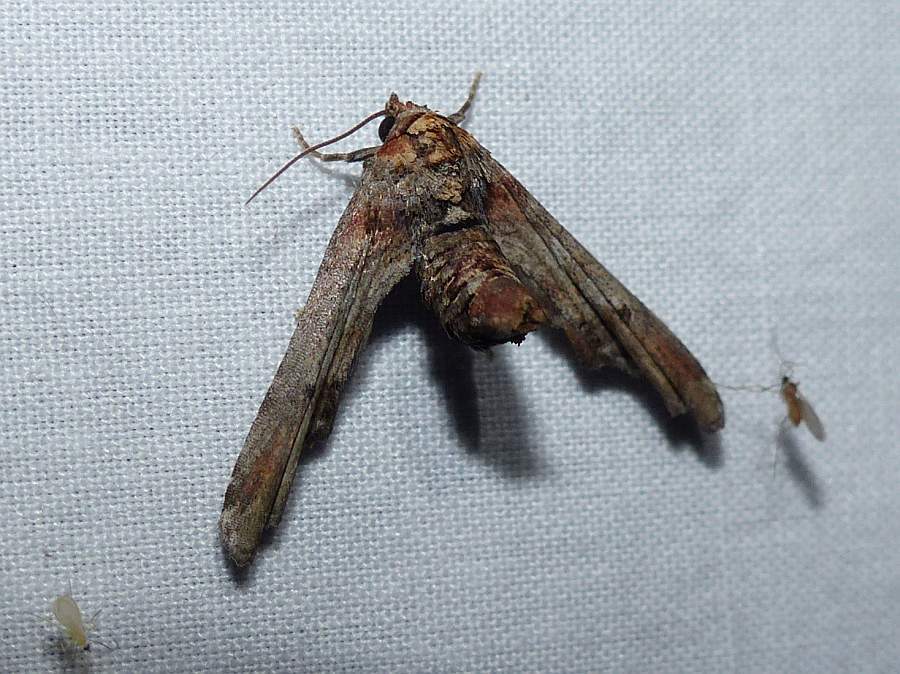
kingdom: Animalia
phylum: Arthropoda
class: Insecta
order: Lepidoptera
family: Euteliidae
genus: Marathyssa
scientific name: Marathyssa inficita
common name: Dark marathyssa moth
